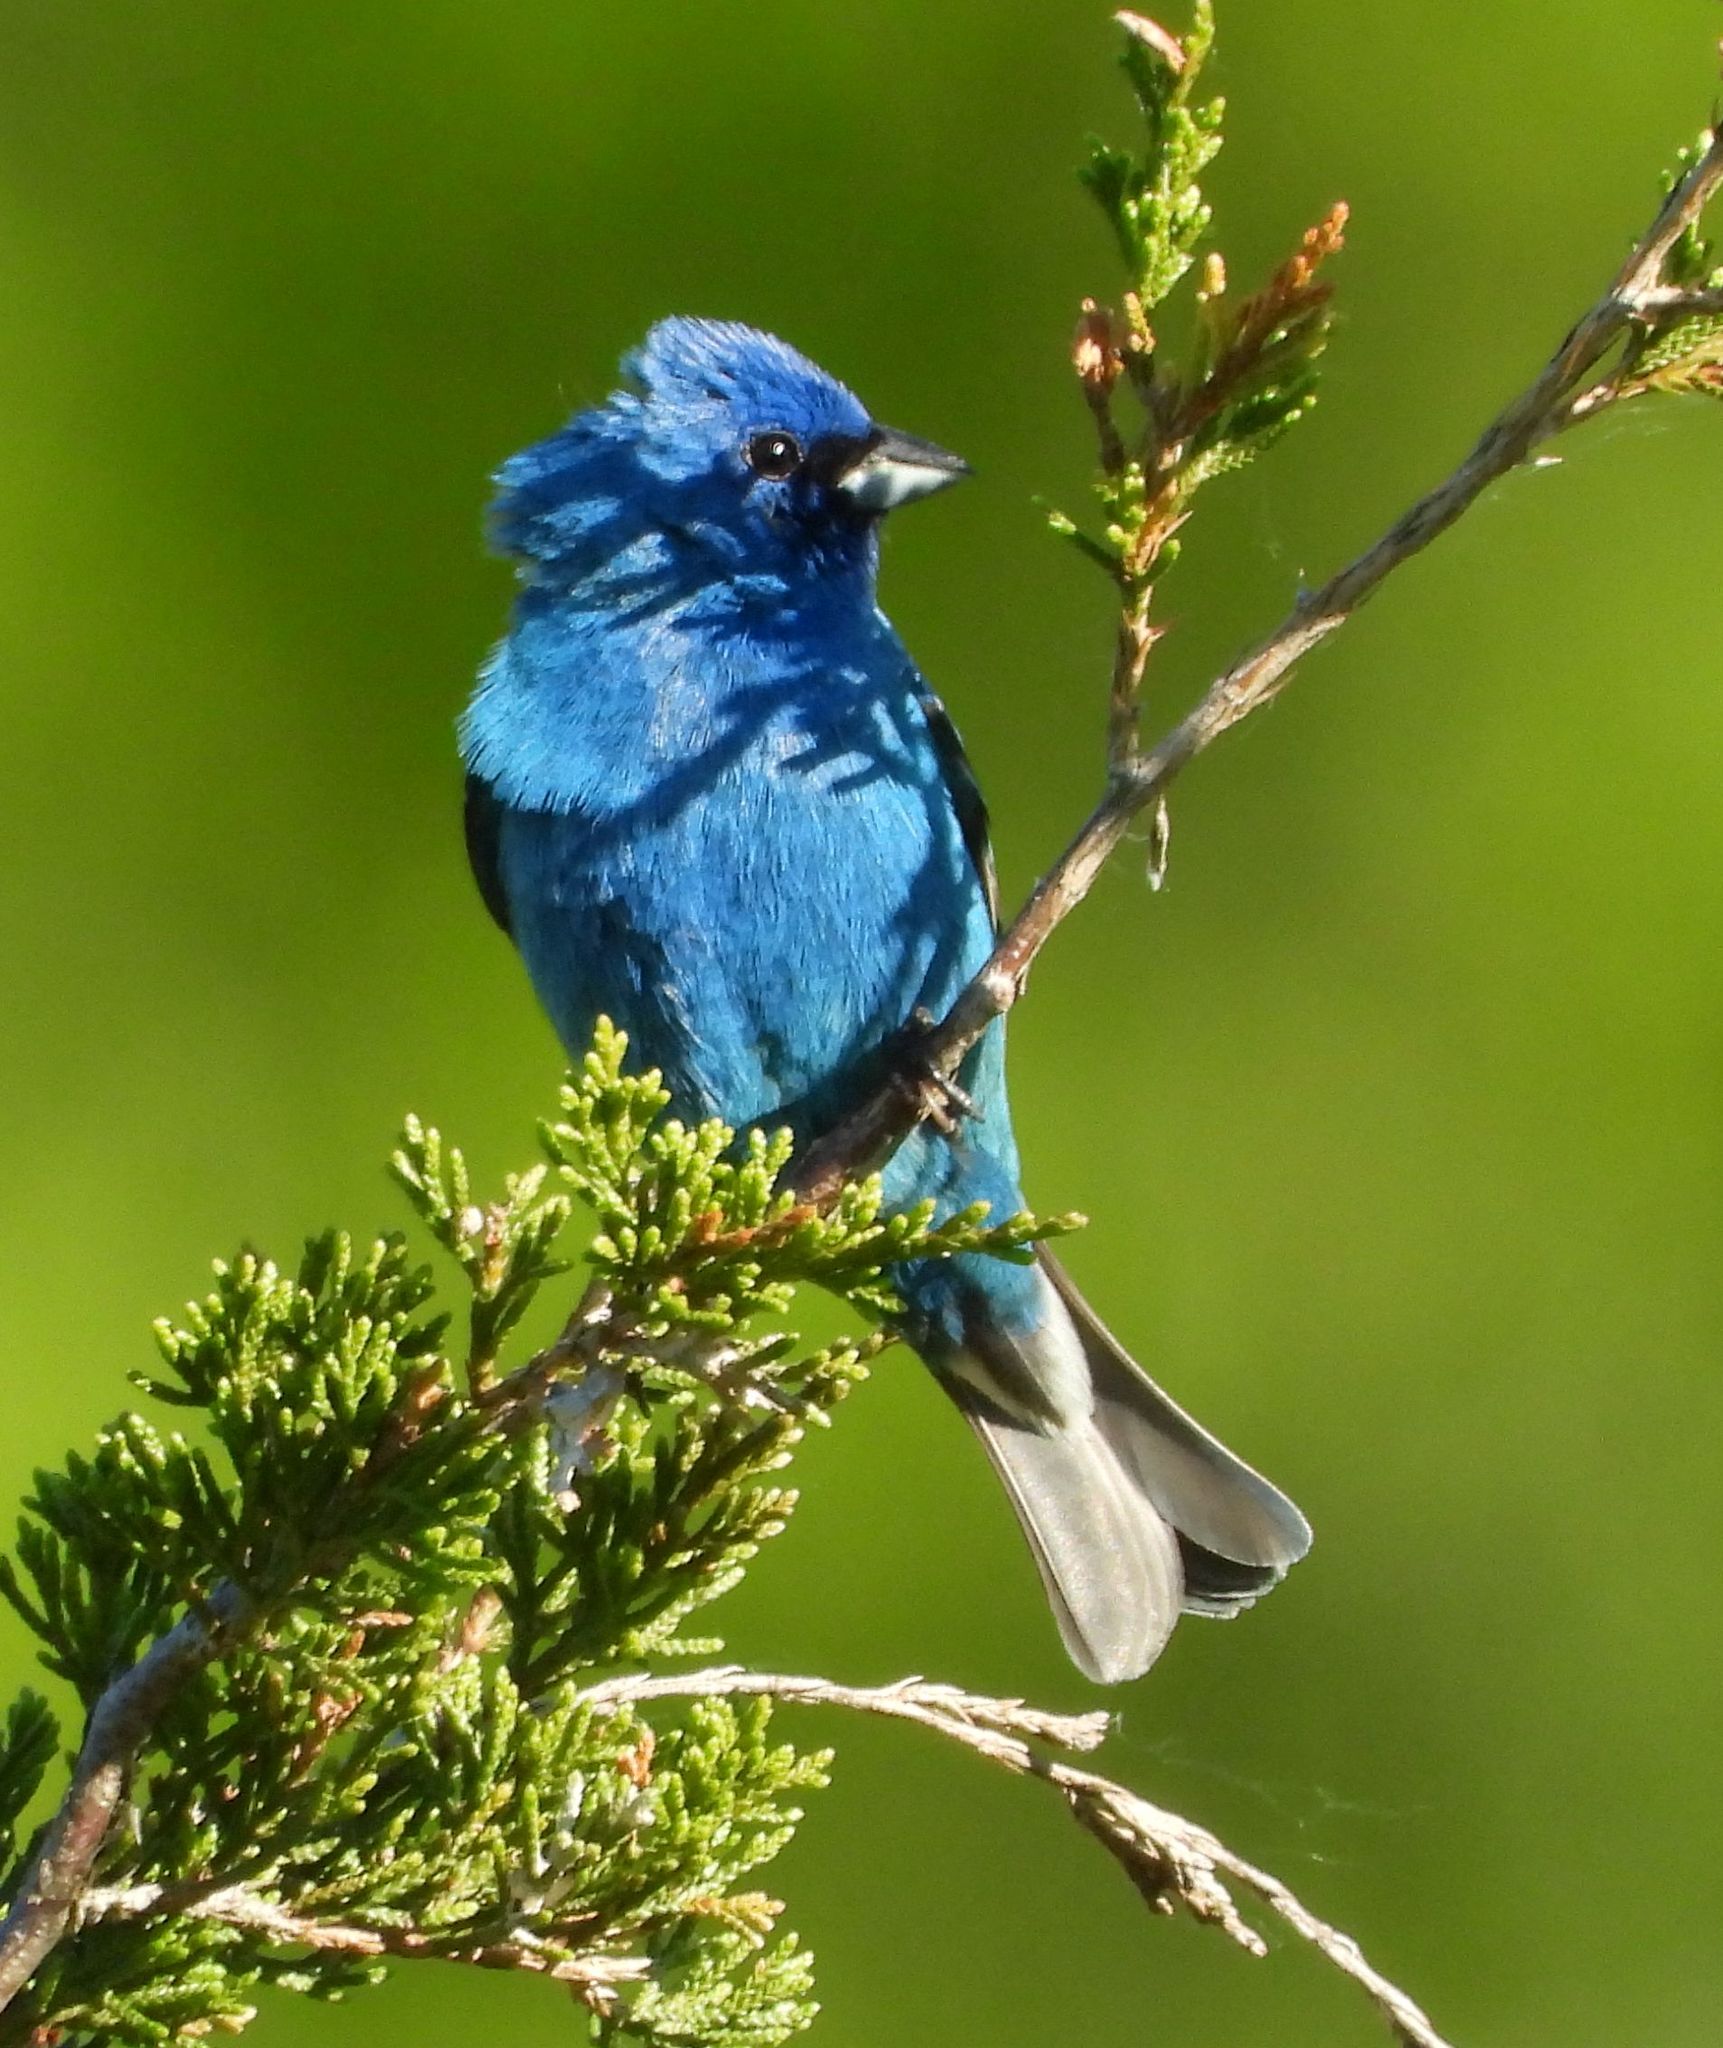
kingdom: Animalia
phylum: Chordata
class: Aves
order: Passeriformes
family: Cardinalidae
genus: Passerina
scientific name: Passerina cyanea
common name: Indigo bunting
